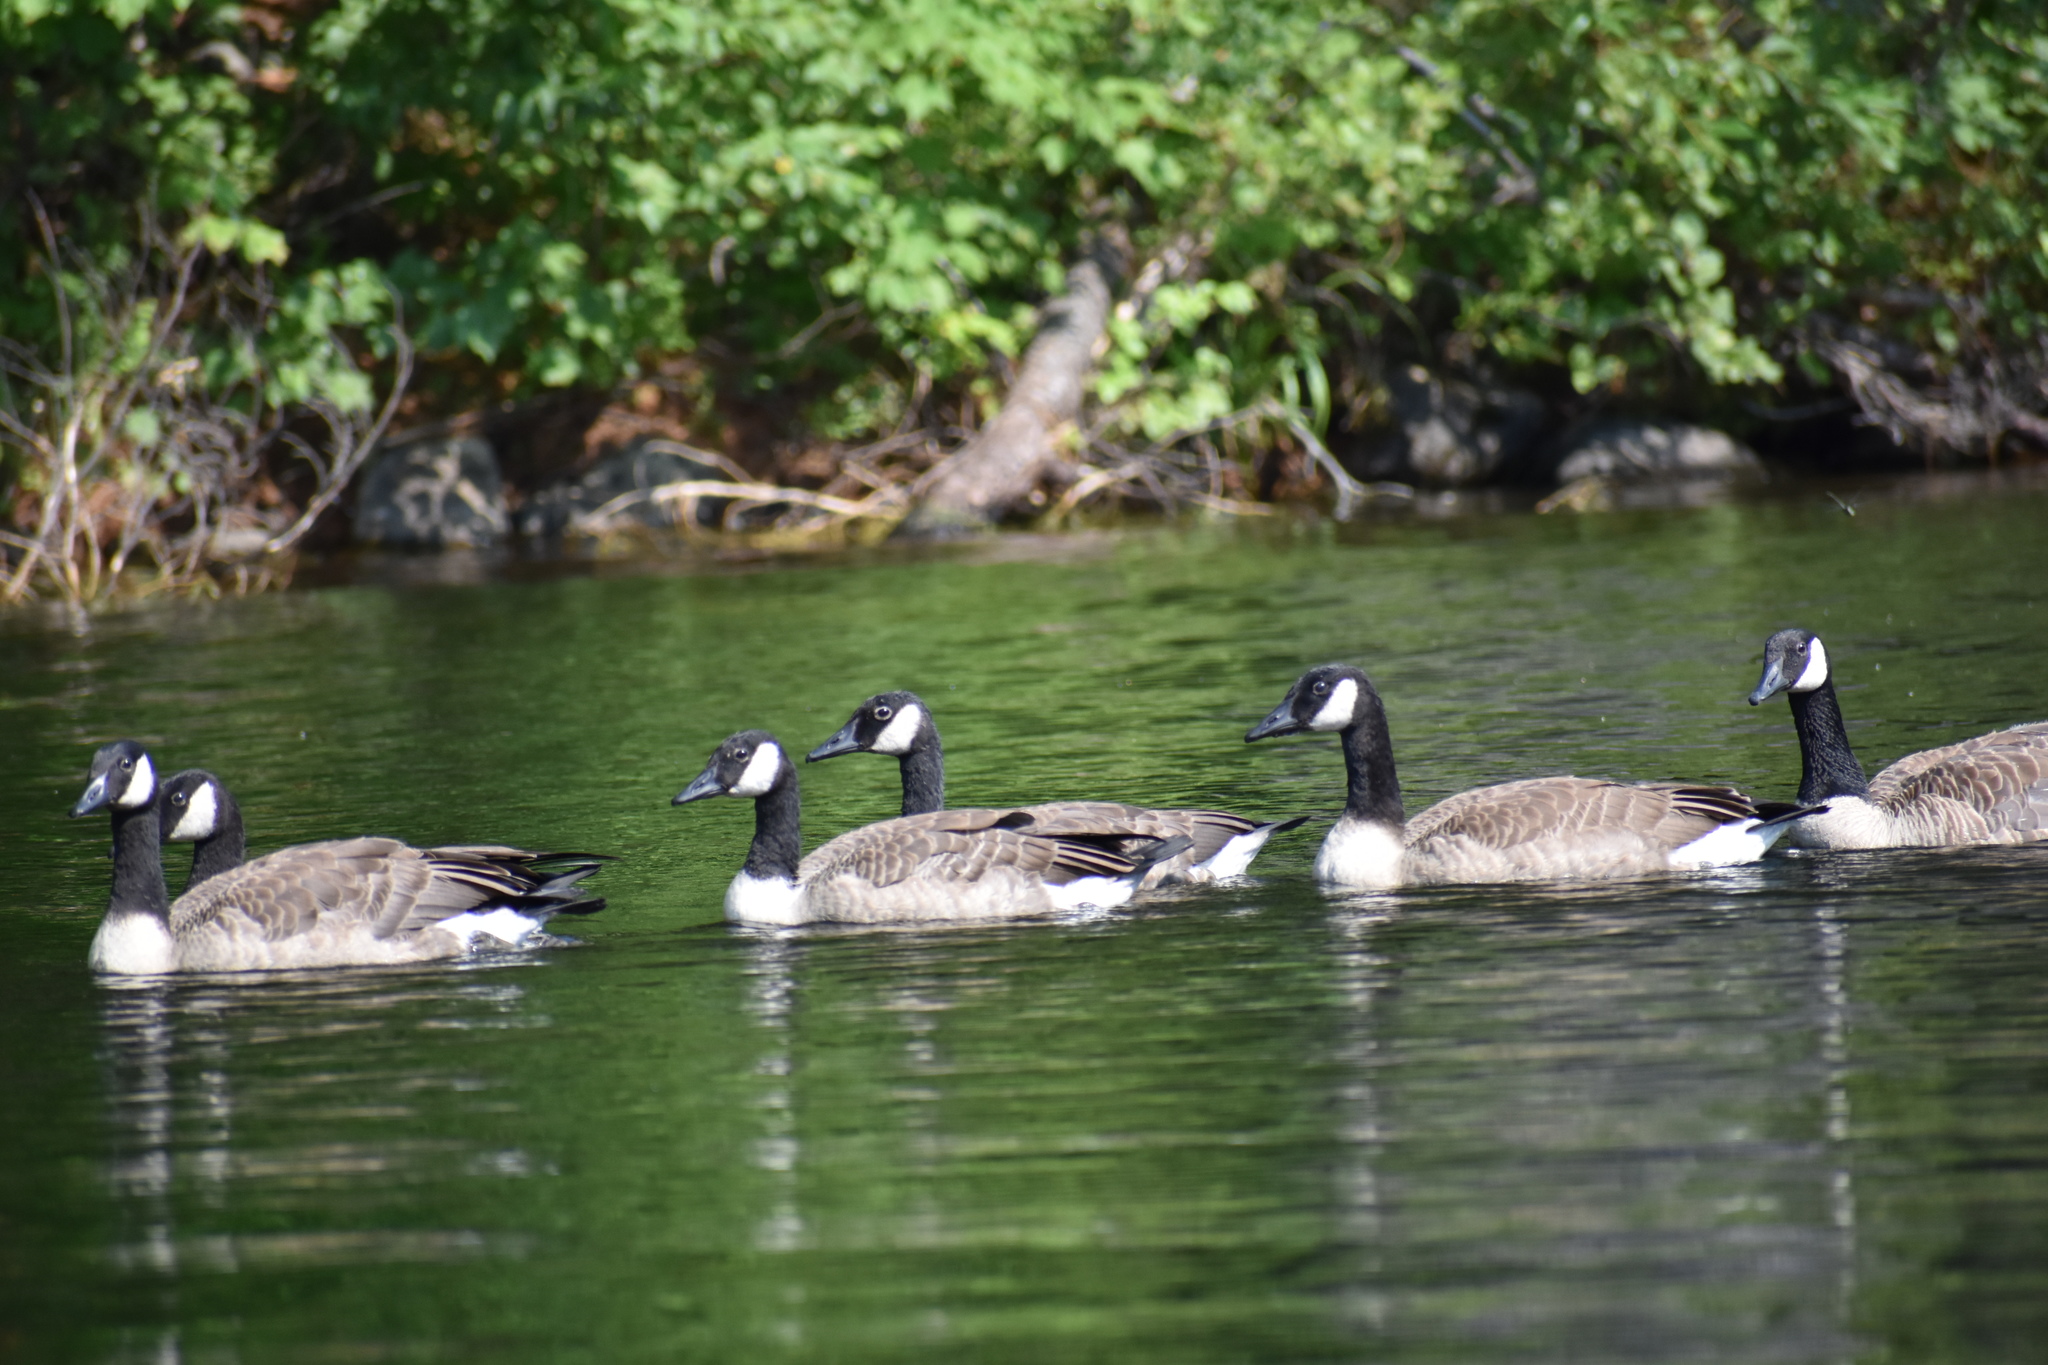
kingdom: Animalia
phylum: Chordata
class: Aves
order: Anseriformes
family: Anatidae
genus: Branta
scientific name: Branta canadensis
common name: Canada goose
